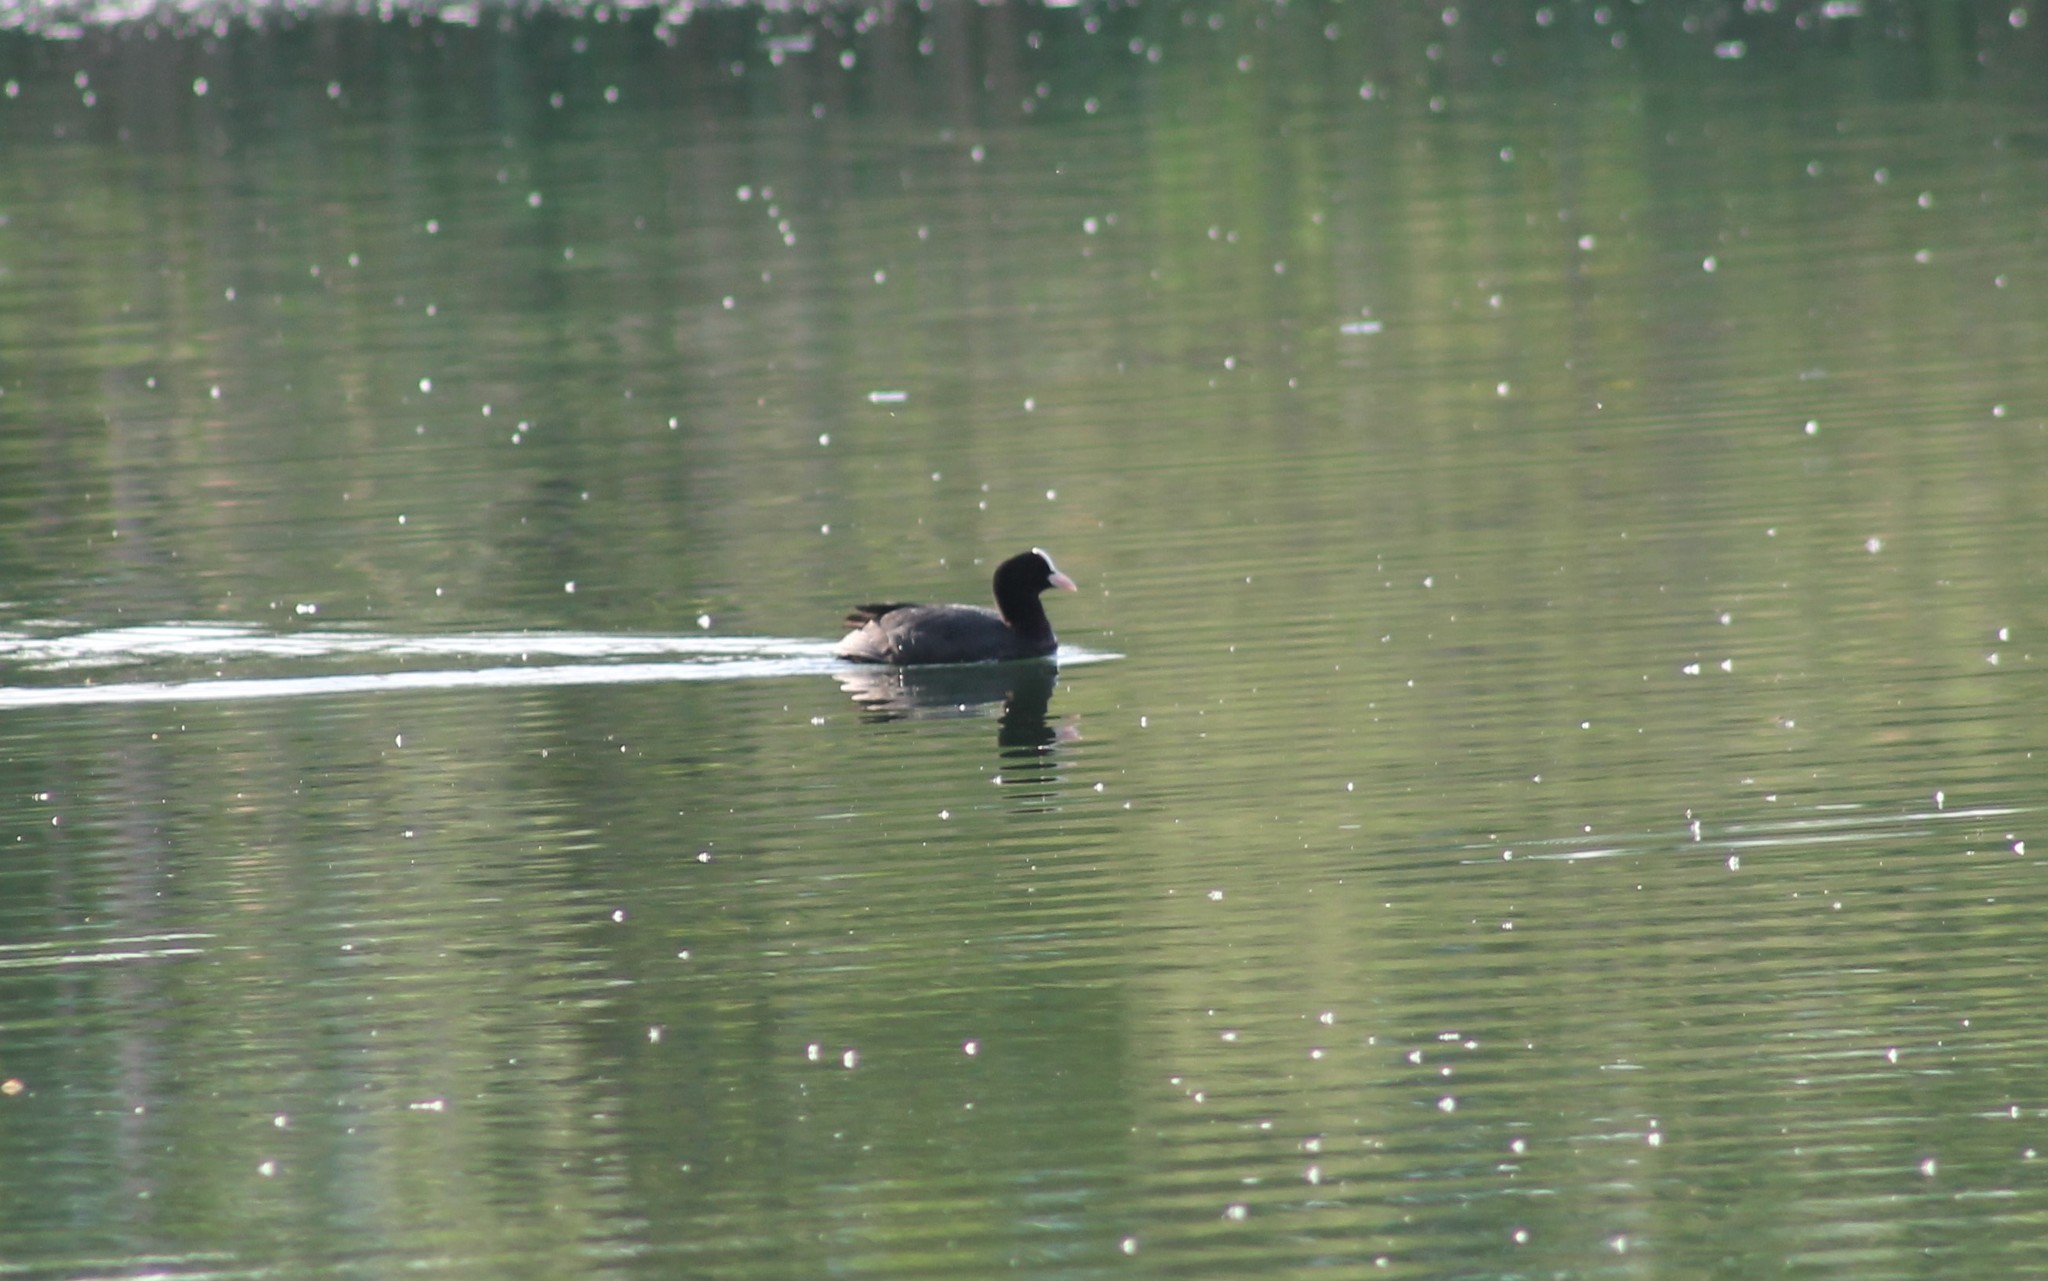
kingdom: Animalia
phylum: Chordata
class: Aves
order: Gruiformes
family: Rallidae
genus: Fulica
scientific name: Fulica atra
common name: Eurasian coot
